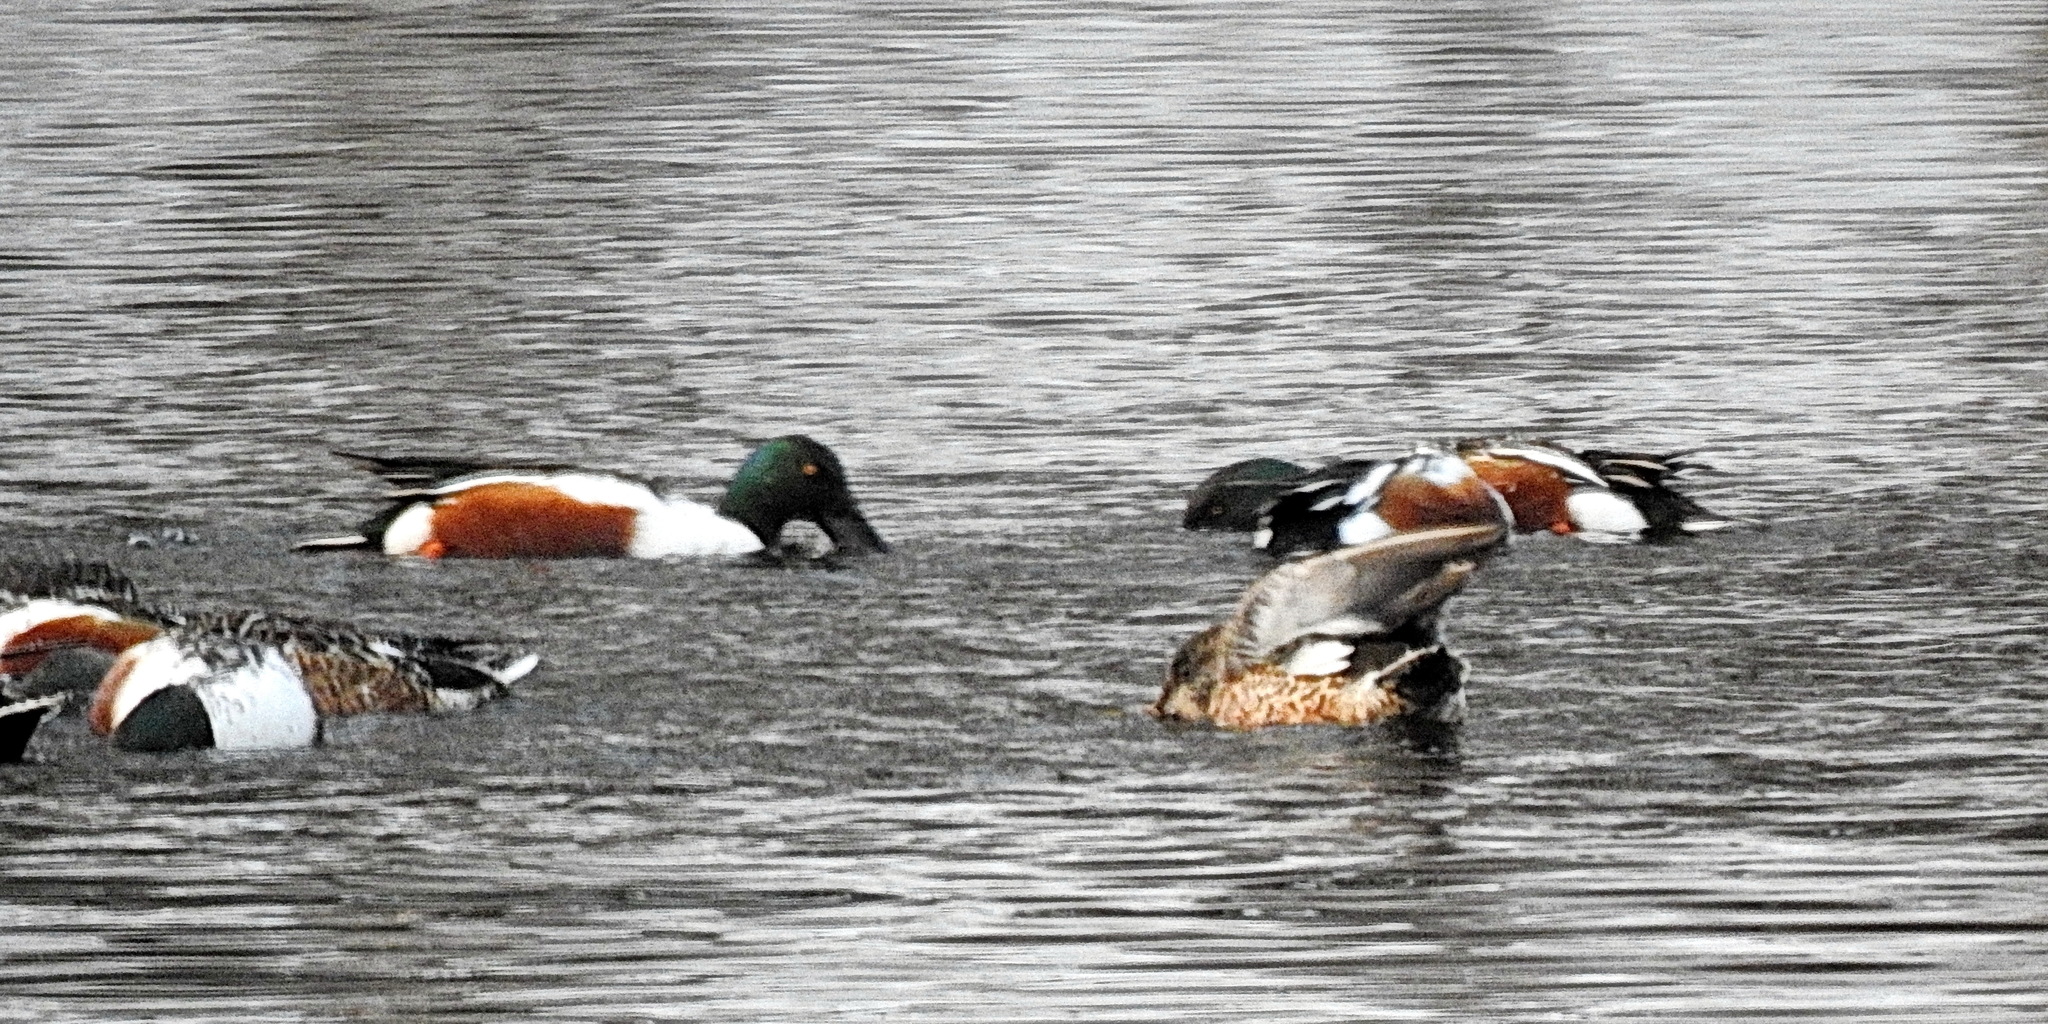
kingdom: Animalia
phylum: Chordata
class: Aves
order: Anseriformes
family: Anatidae
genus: Spatula
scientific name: Spatula clypeata
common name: Northern shoveler
